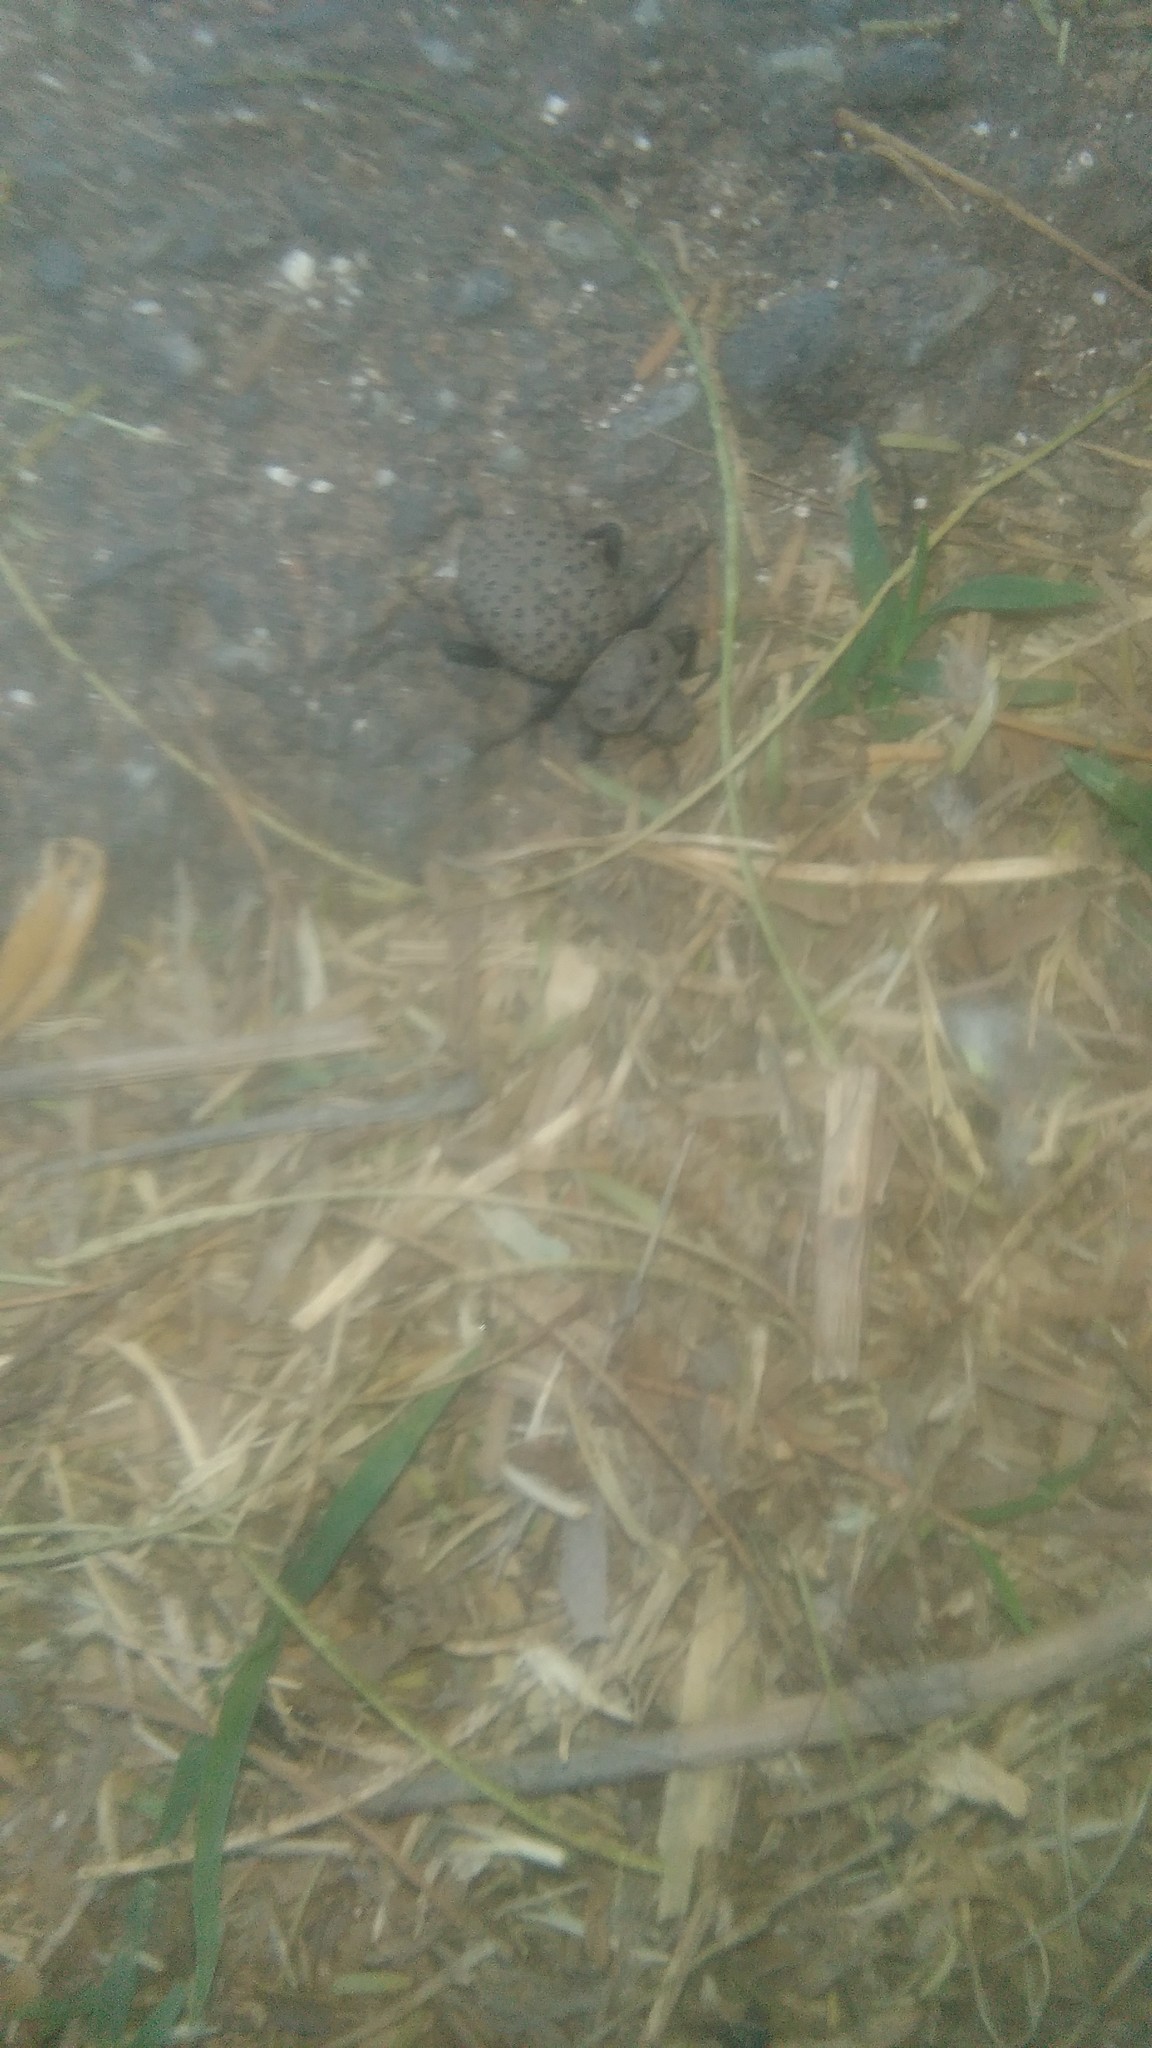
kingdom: Animalia
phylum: Arthropoda
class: Insecta
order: Coleoptera
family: Tenebrionidae
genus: Scotobius
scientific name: Scotobius pilularius
